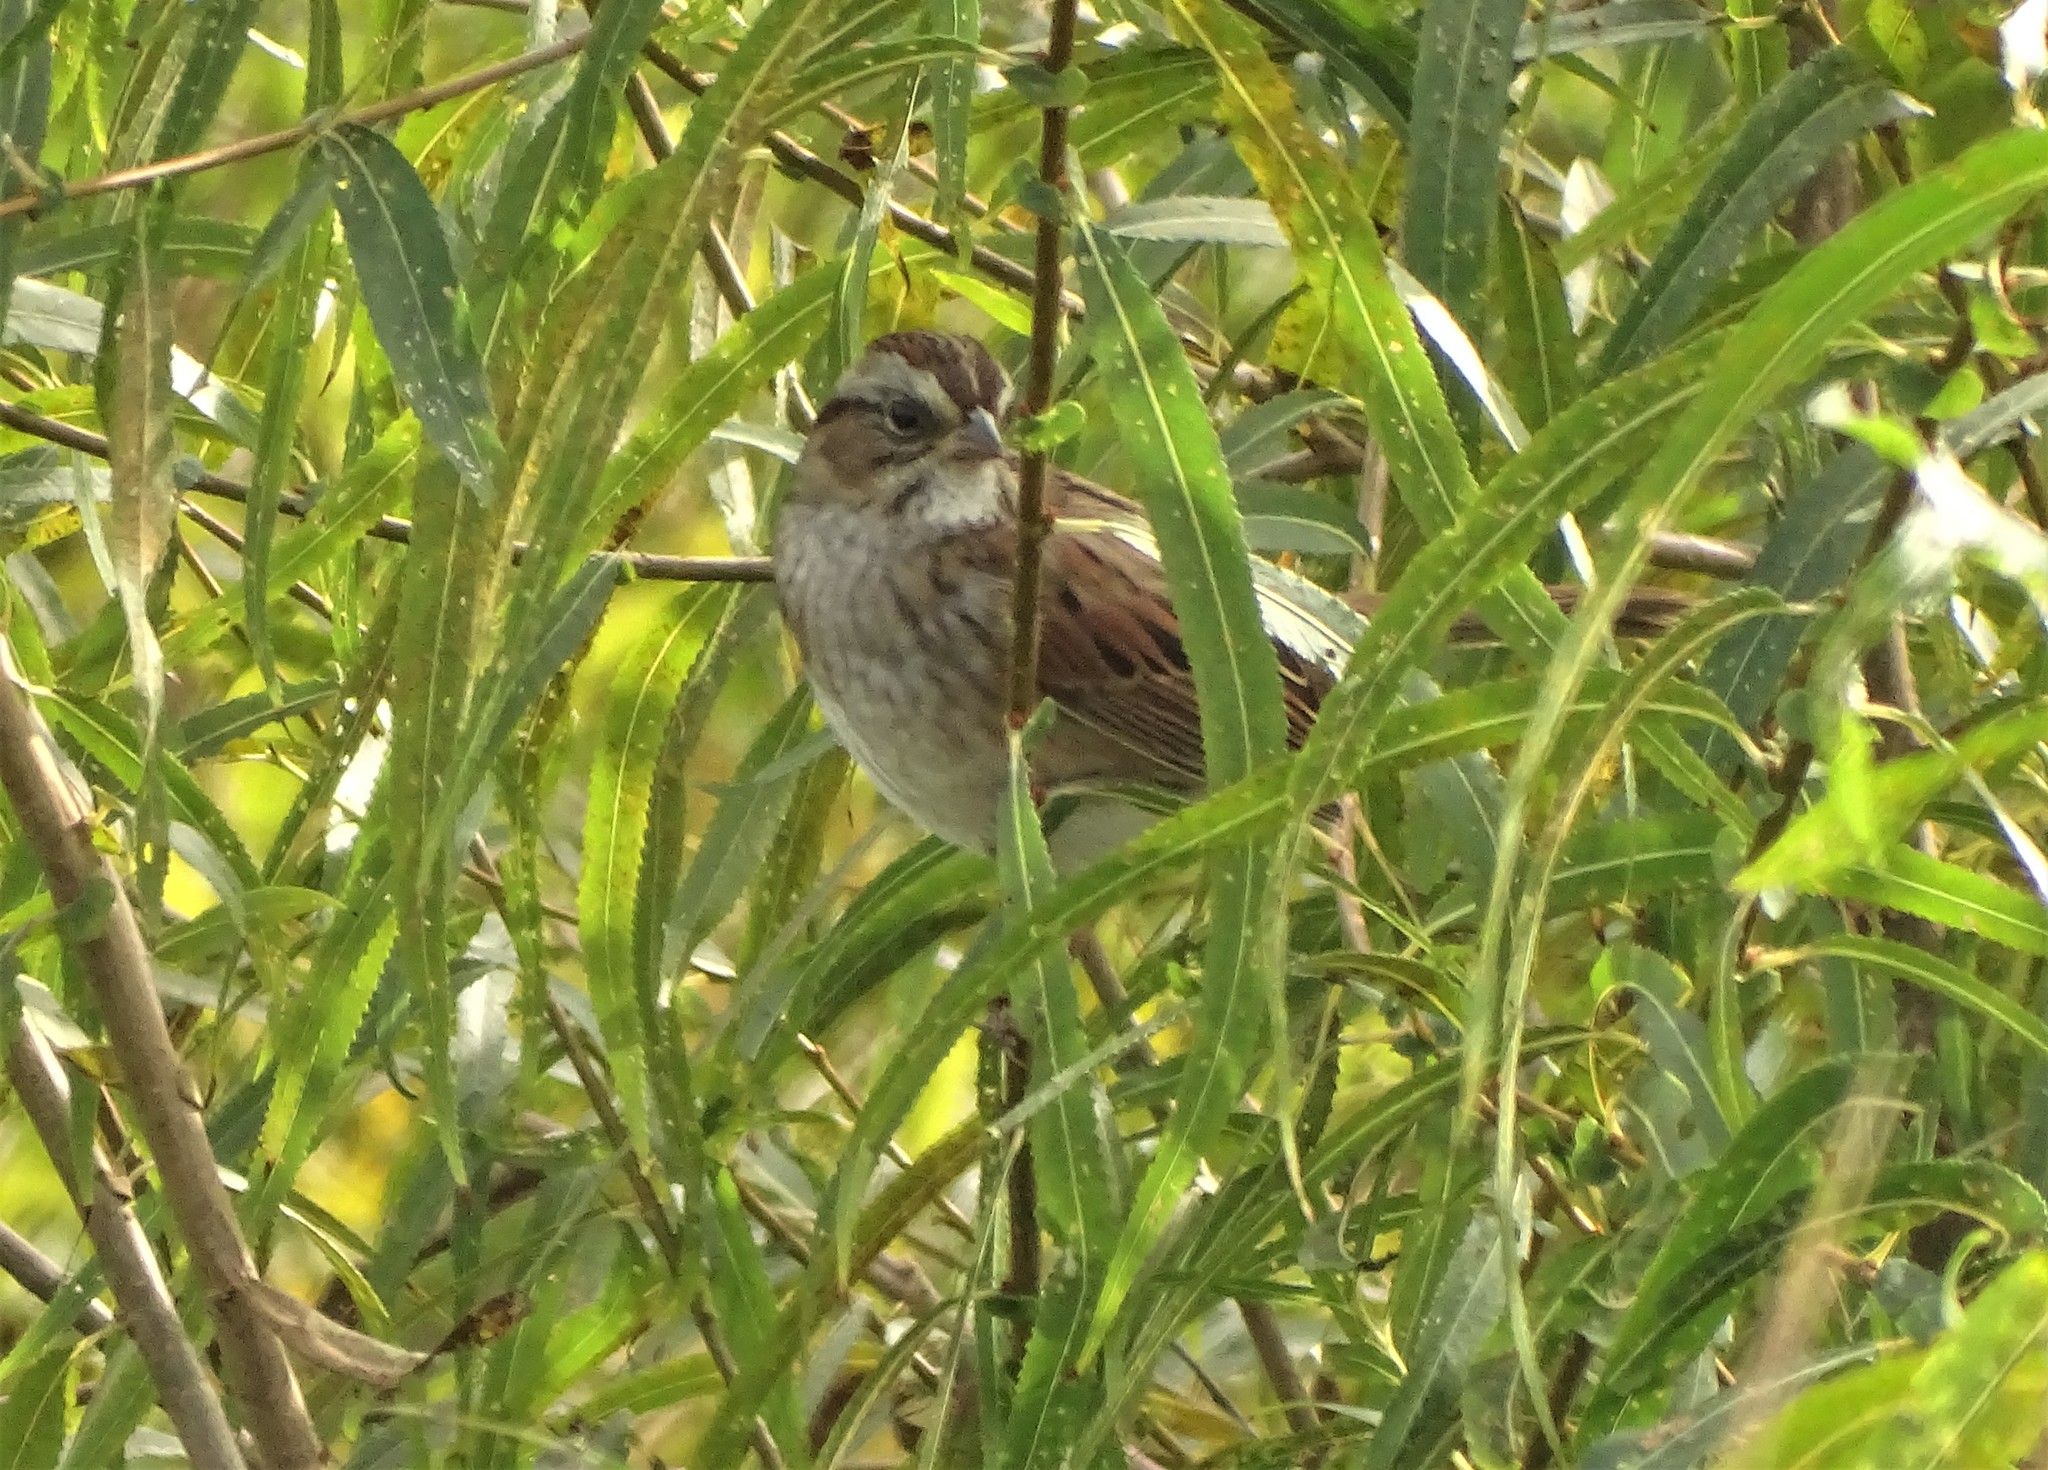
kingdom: Animalia
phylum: Chordata
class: Aves
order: Passeriformes
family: Passerellidae
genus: Melospiza
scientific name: Melospiza georgiana
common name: Swamp sparrow
